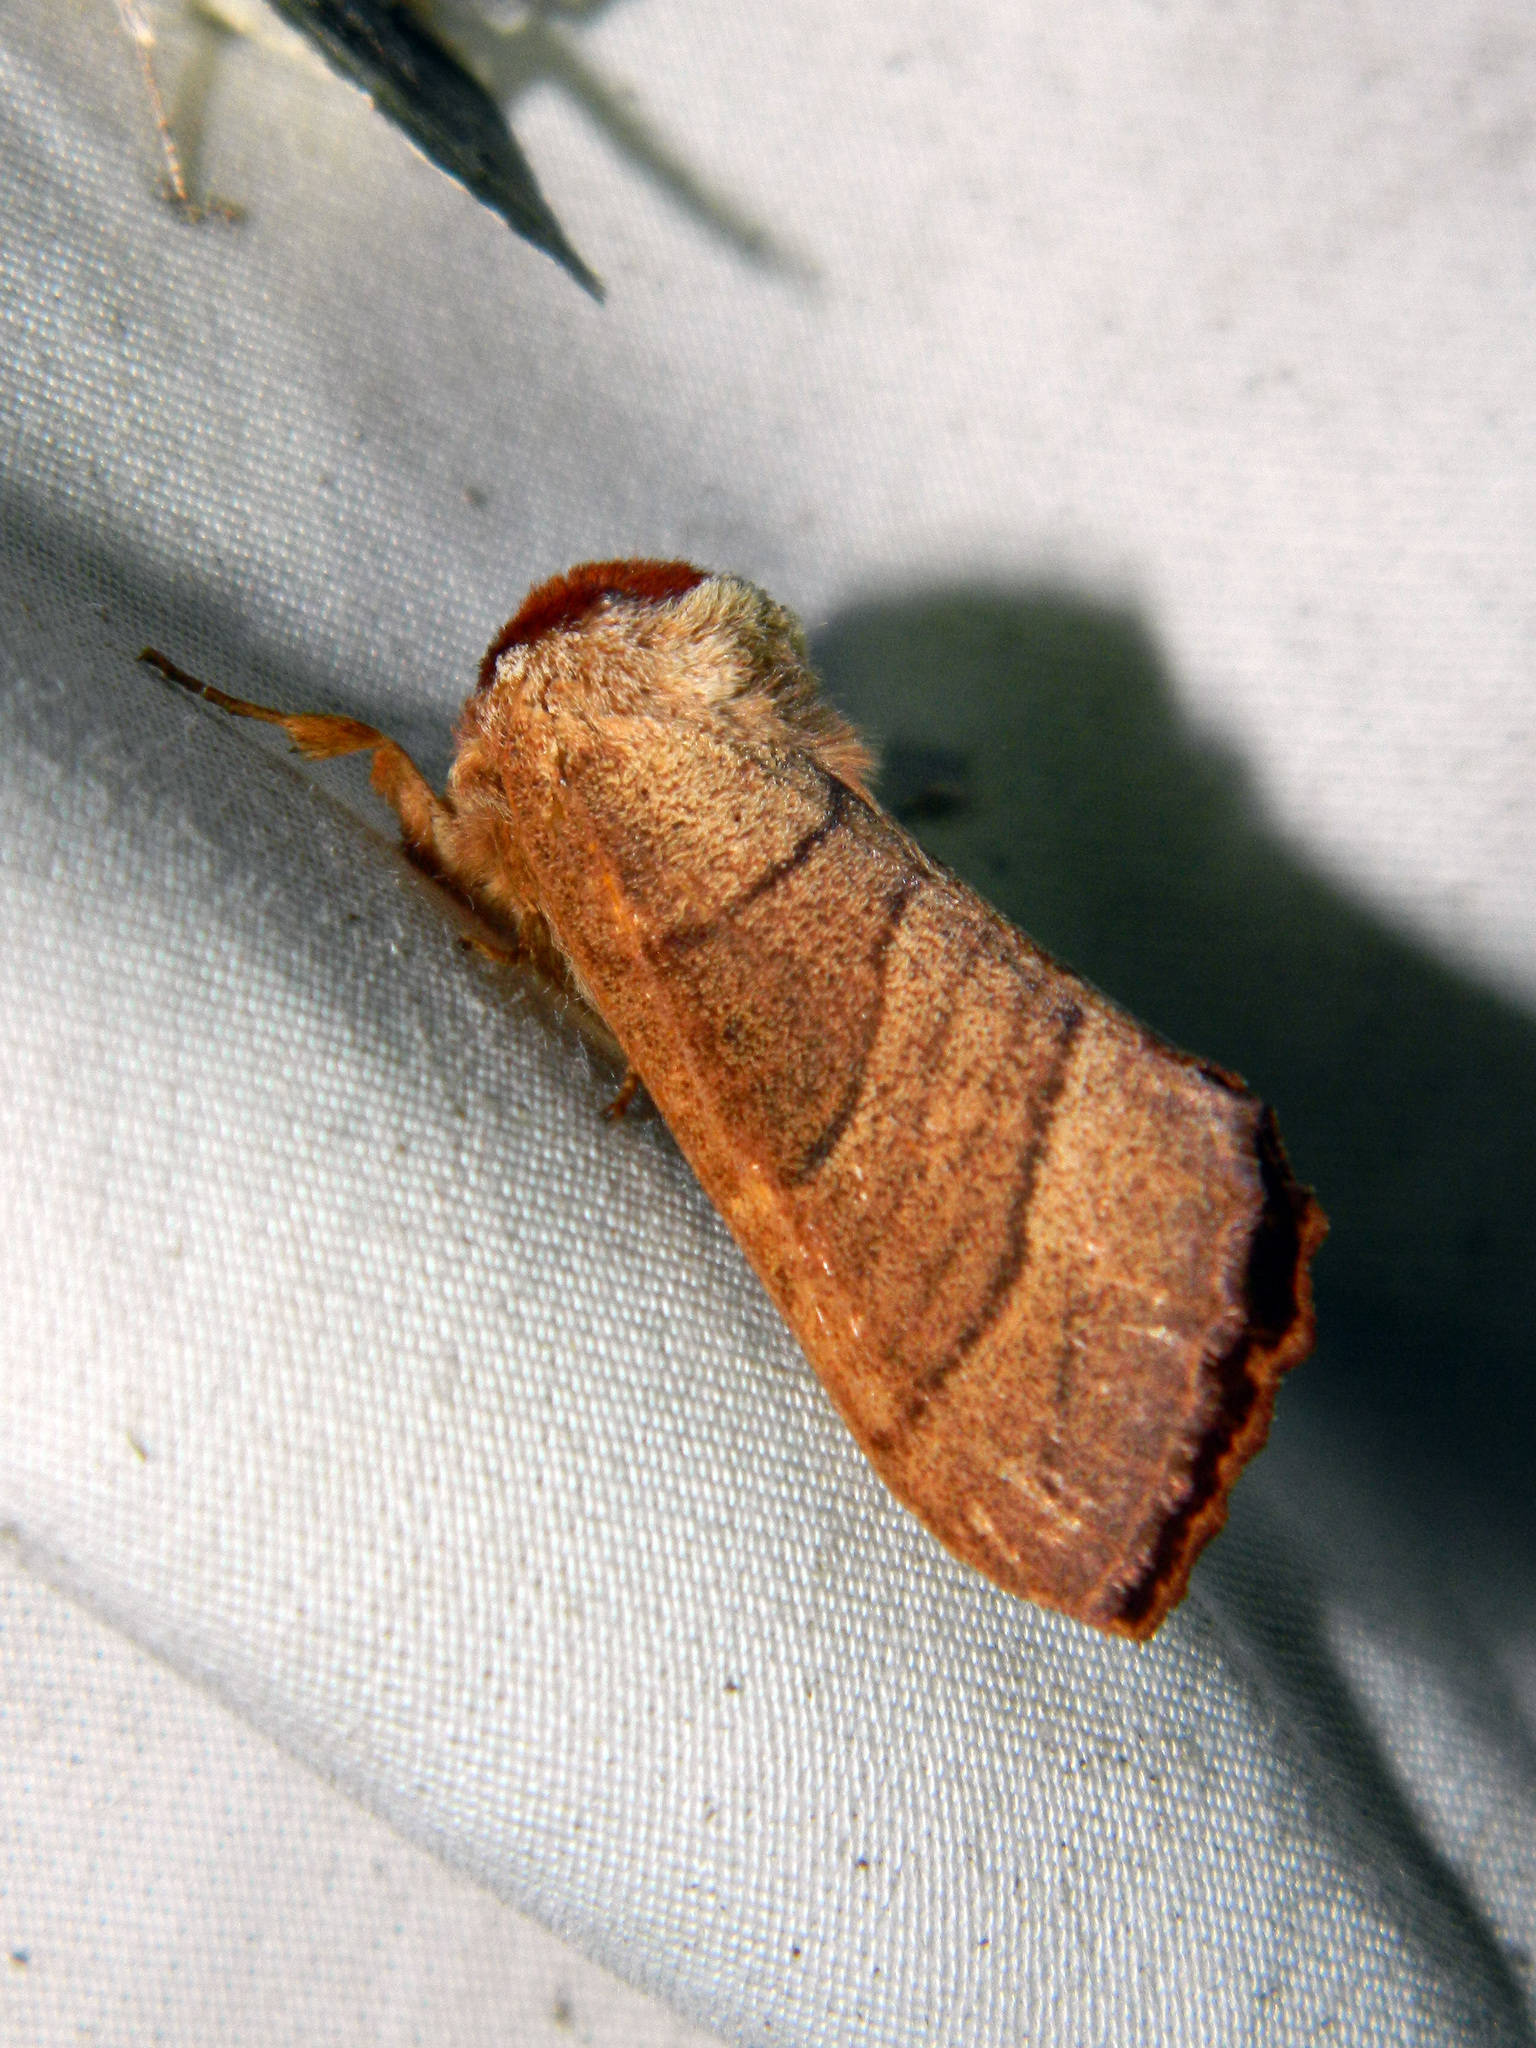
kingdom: Animalia
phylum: Arthropoda
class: Insecta
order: Lepidoptera
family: Notodontidae
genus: Datana
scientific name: Datana ministra
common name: Yellow-necked caterpillar moth
